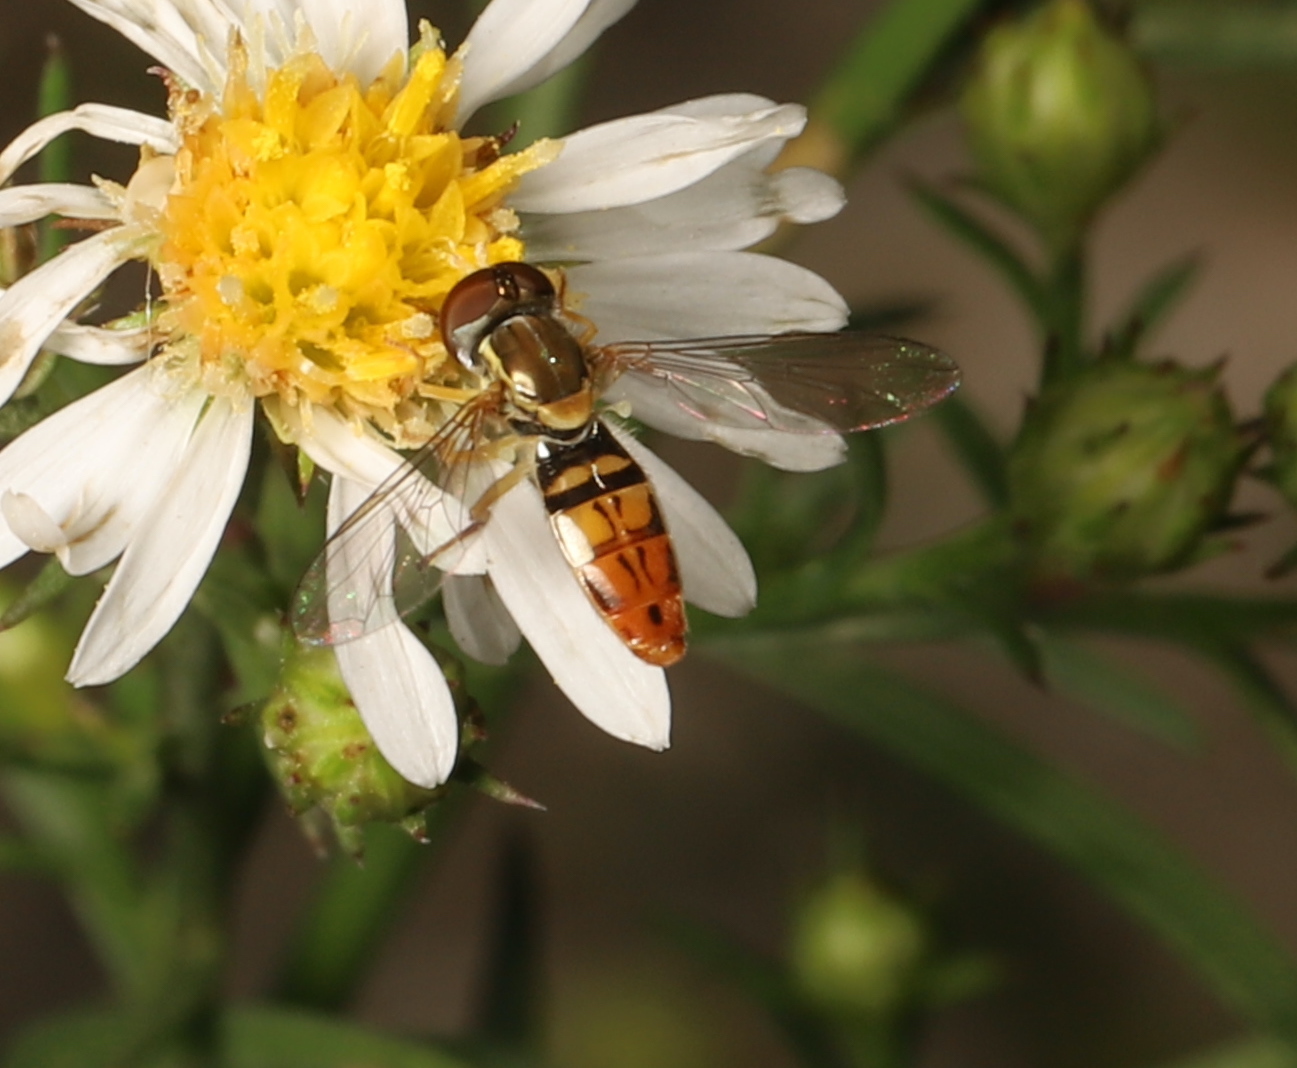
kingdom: Animalia
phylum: Arthropoda
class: Insecta
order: Diptera
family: Syrphidae
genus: Toxomerus
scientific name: Toxomerus marginatus
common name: Syrphid fly
